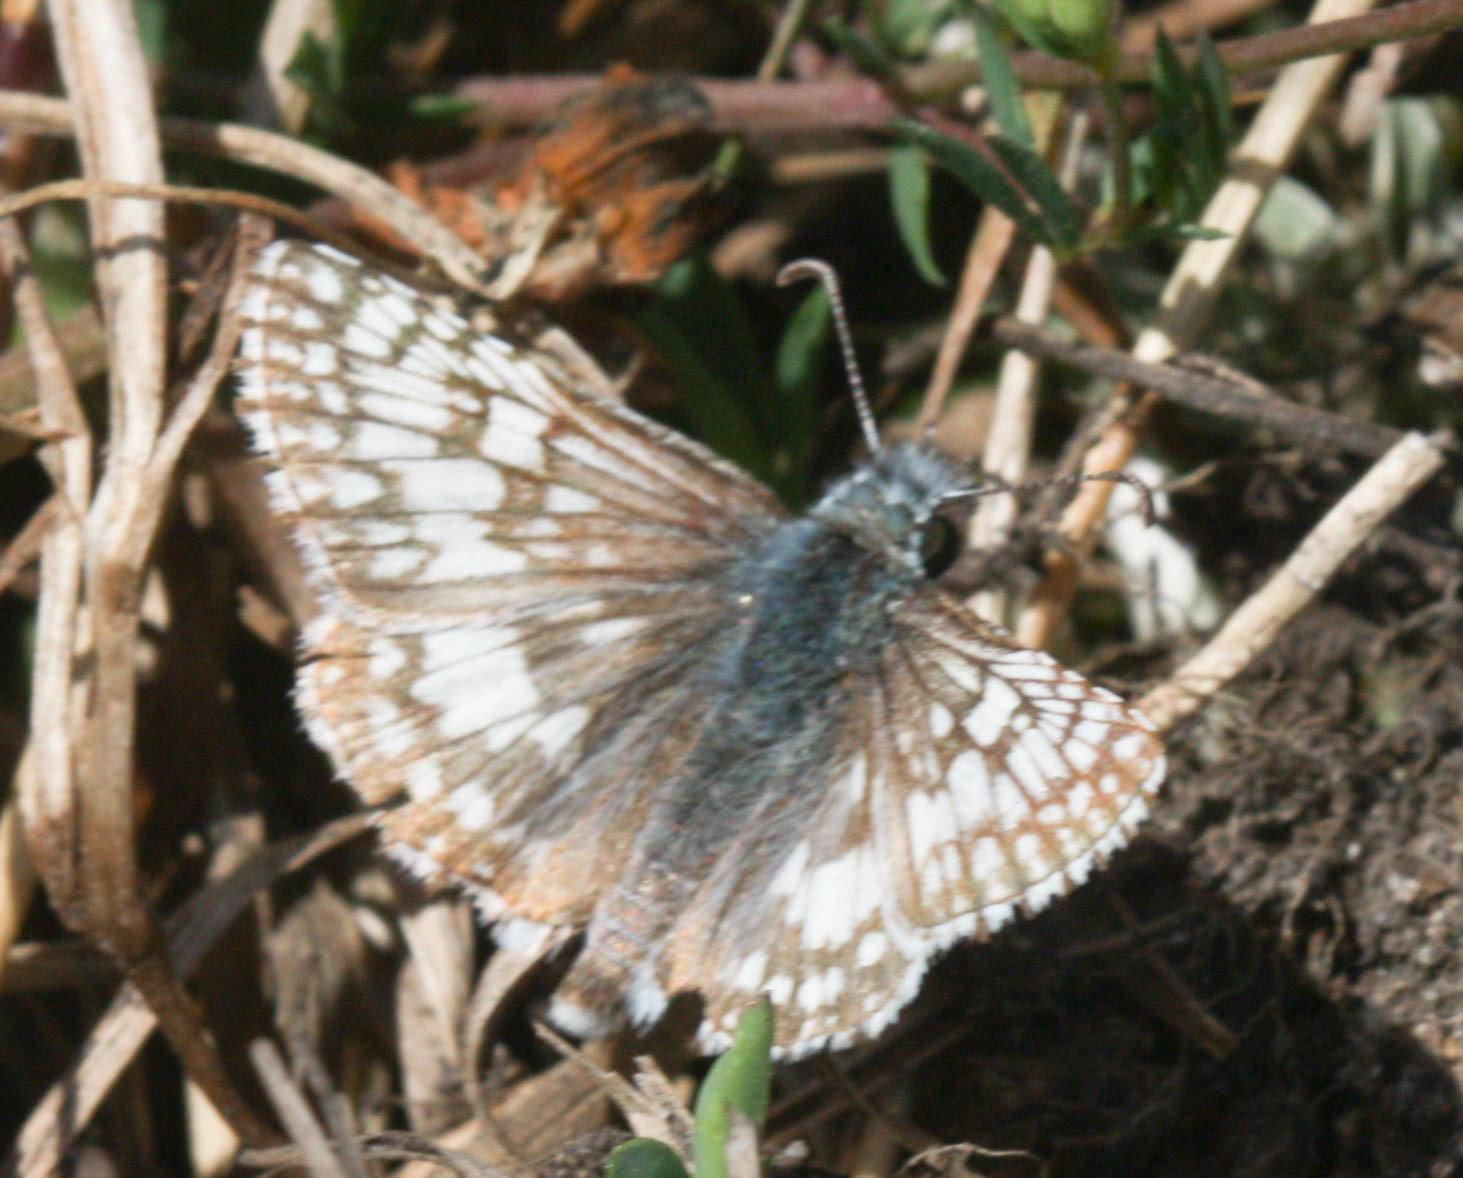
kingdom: Animalia
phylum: Arthropoda
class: Insecta
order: Lepidoptera
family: Hesperiidae
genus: Burnsius
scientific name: Burnsius communis
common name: Common checkered-skipper
